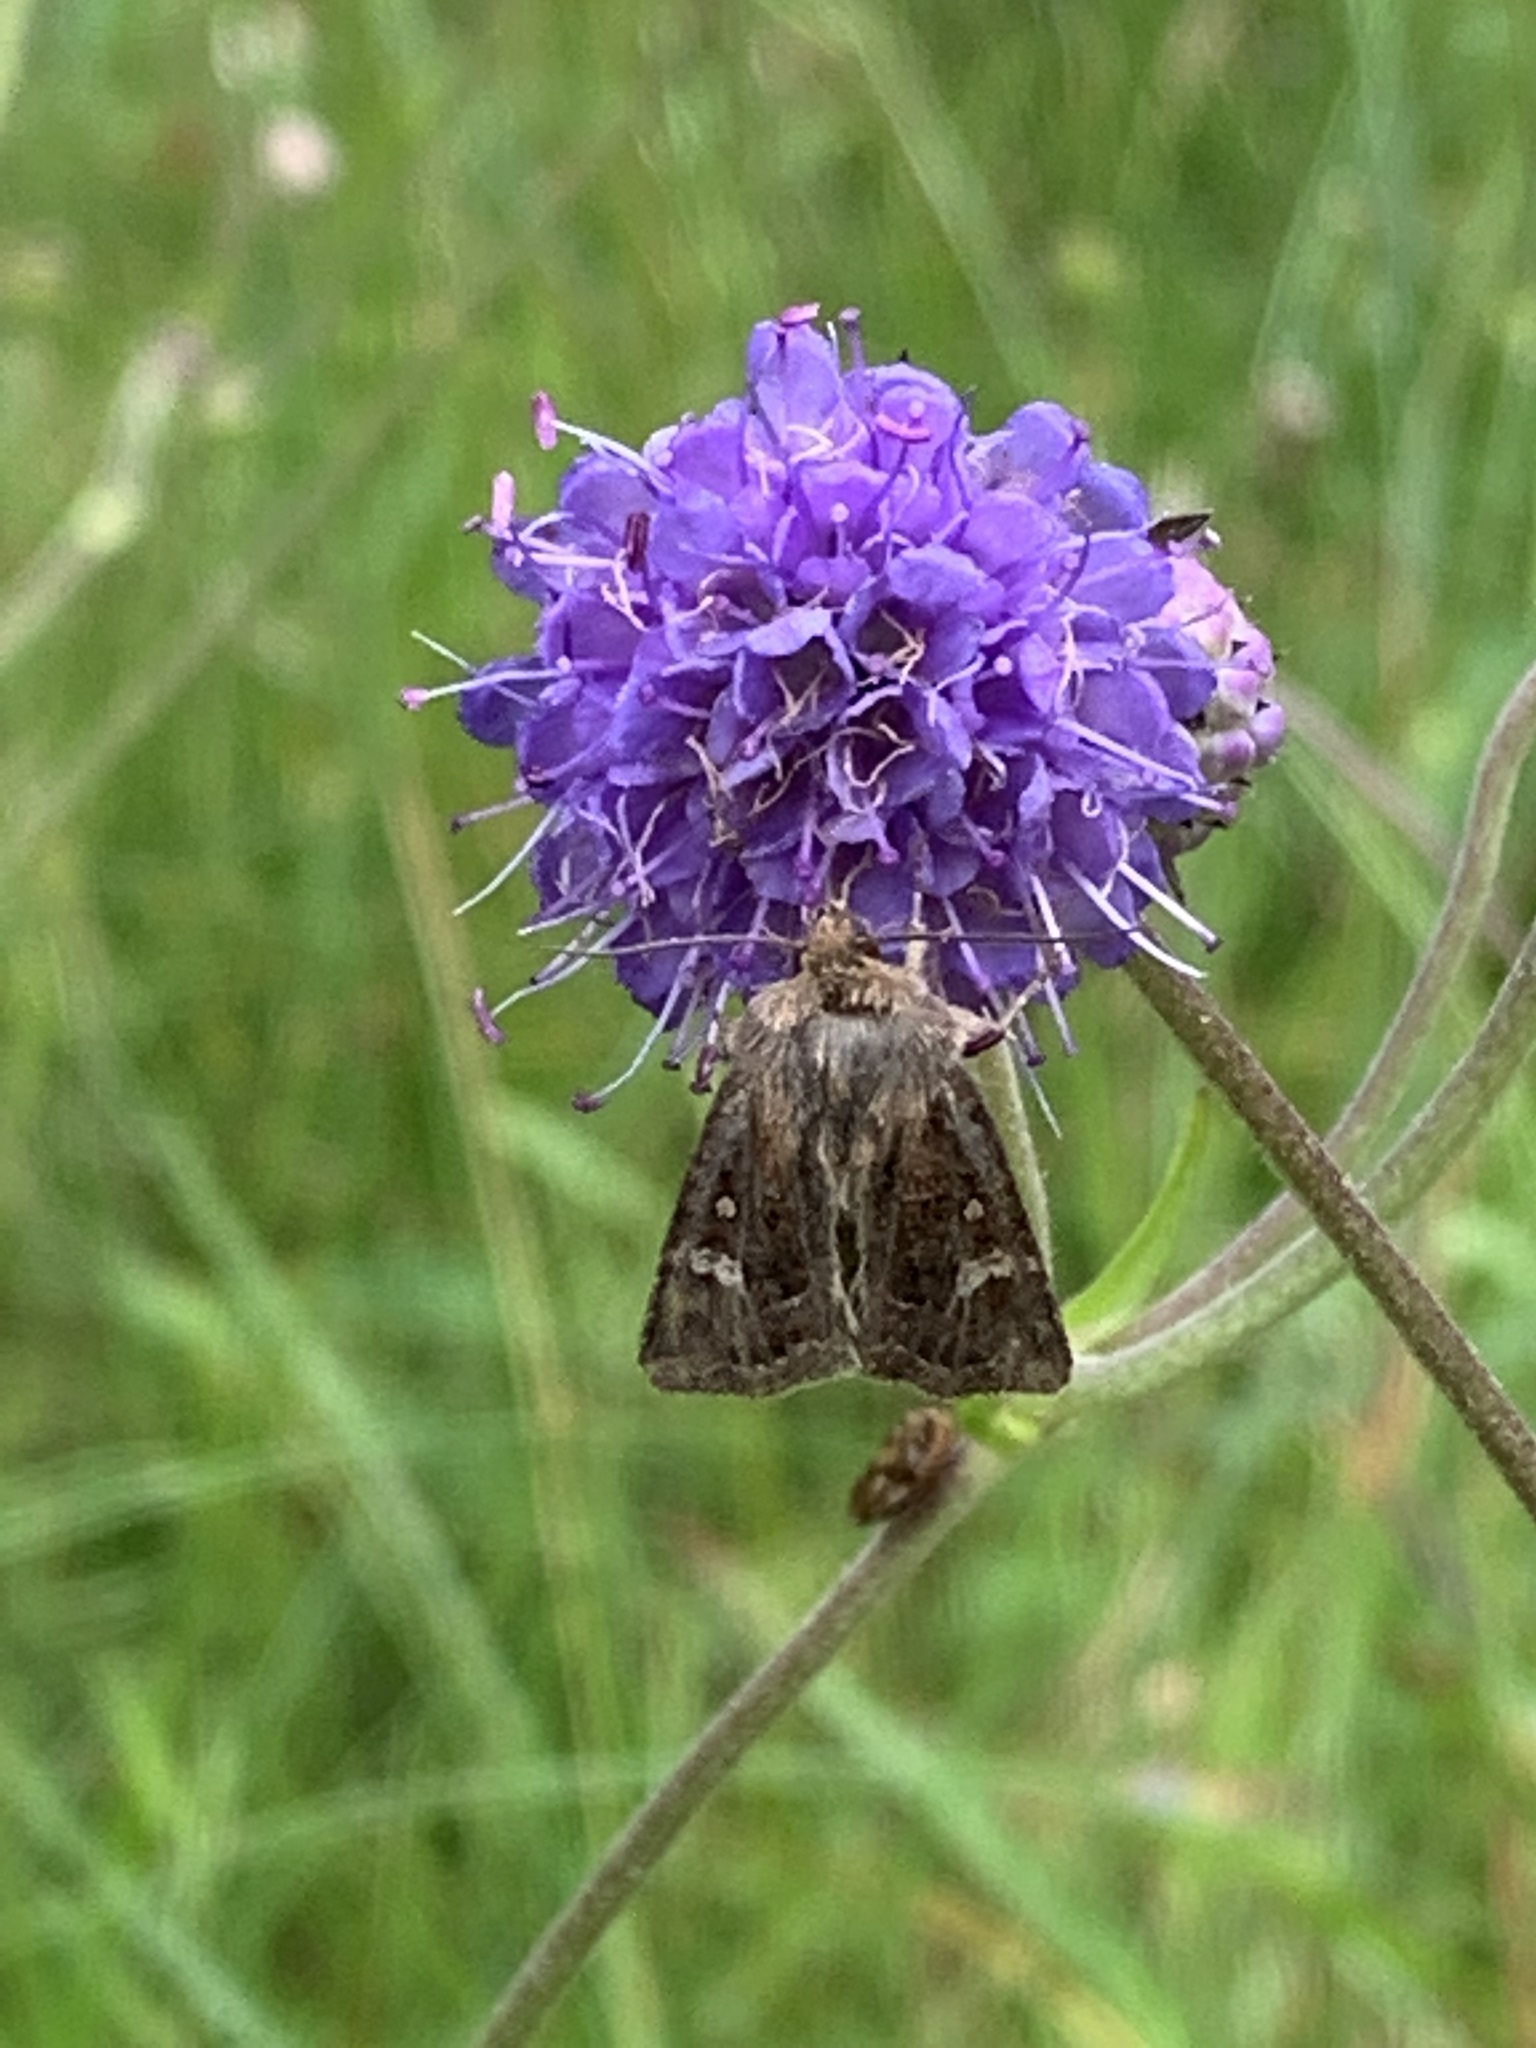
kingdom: Animalia
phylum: Arthropoda
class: Insecta
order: Lepidoptera
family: Noctuidae
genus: Celaena
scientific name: Celaena haworthii
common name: Haworth's minor
